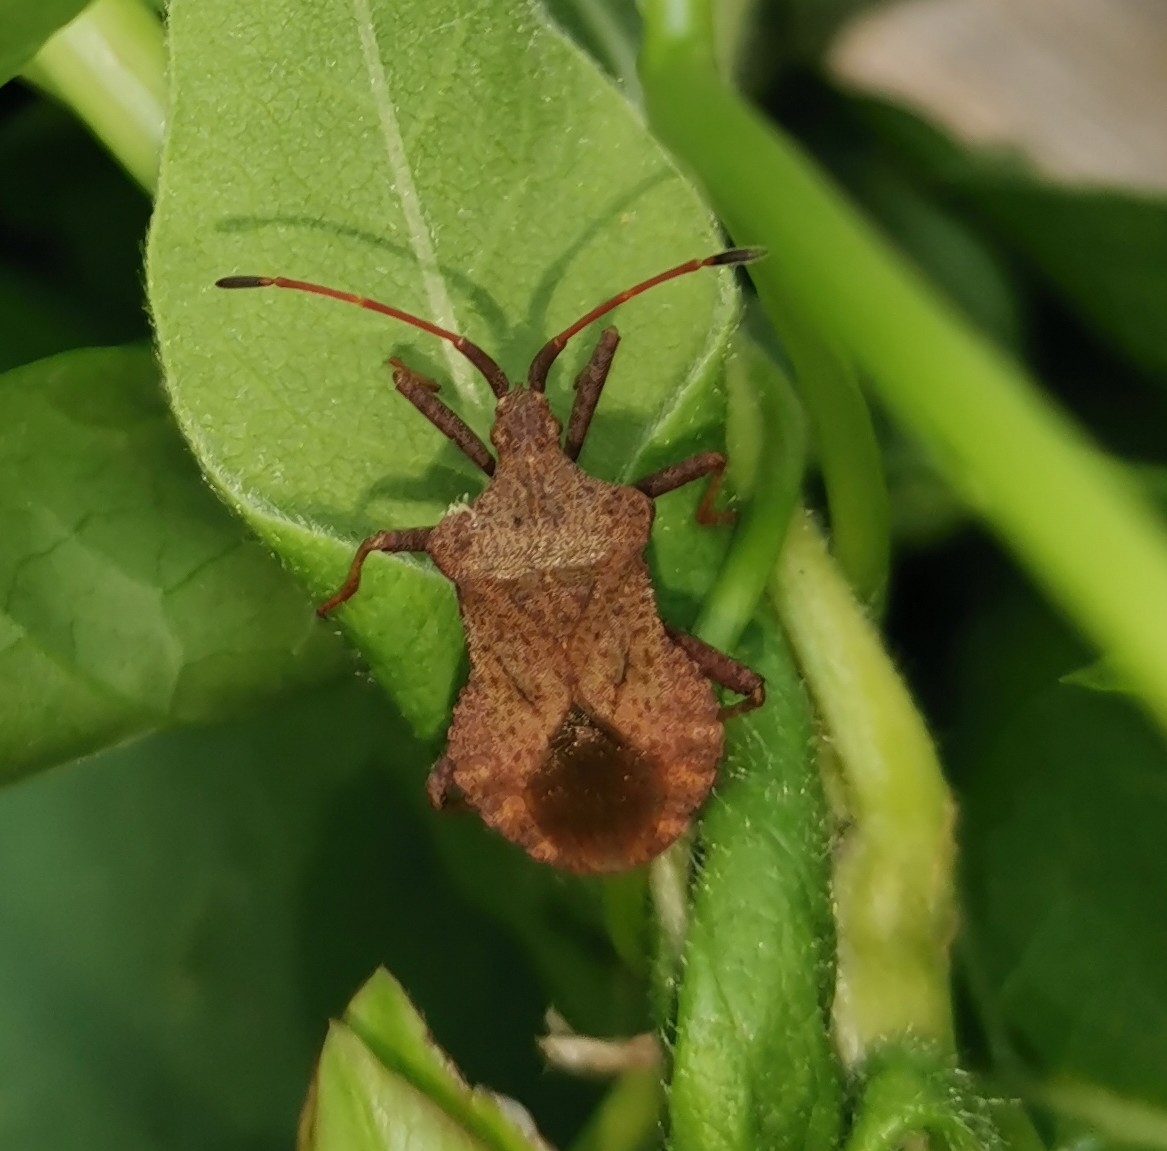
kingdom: Animalia
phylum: Arthropoda
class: Insecta
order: Hemiptera
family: Coreidae
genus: Coreus
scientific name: Coreus marginatus
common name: Dock bug
